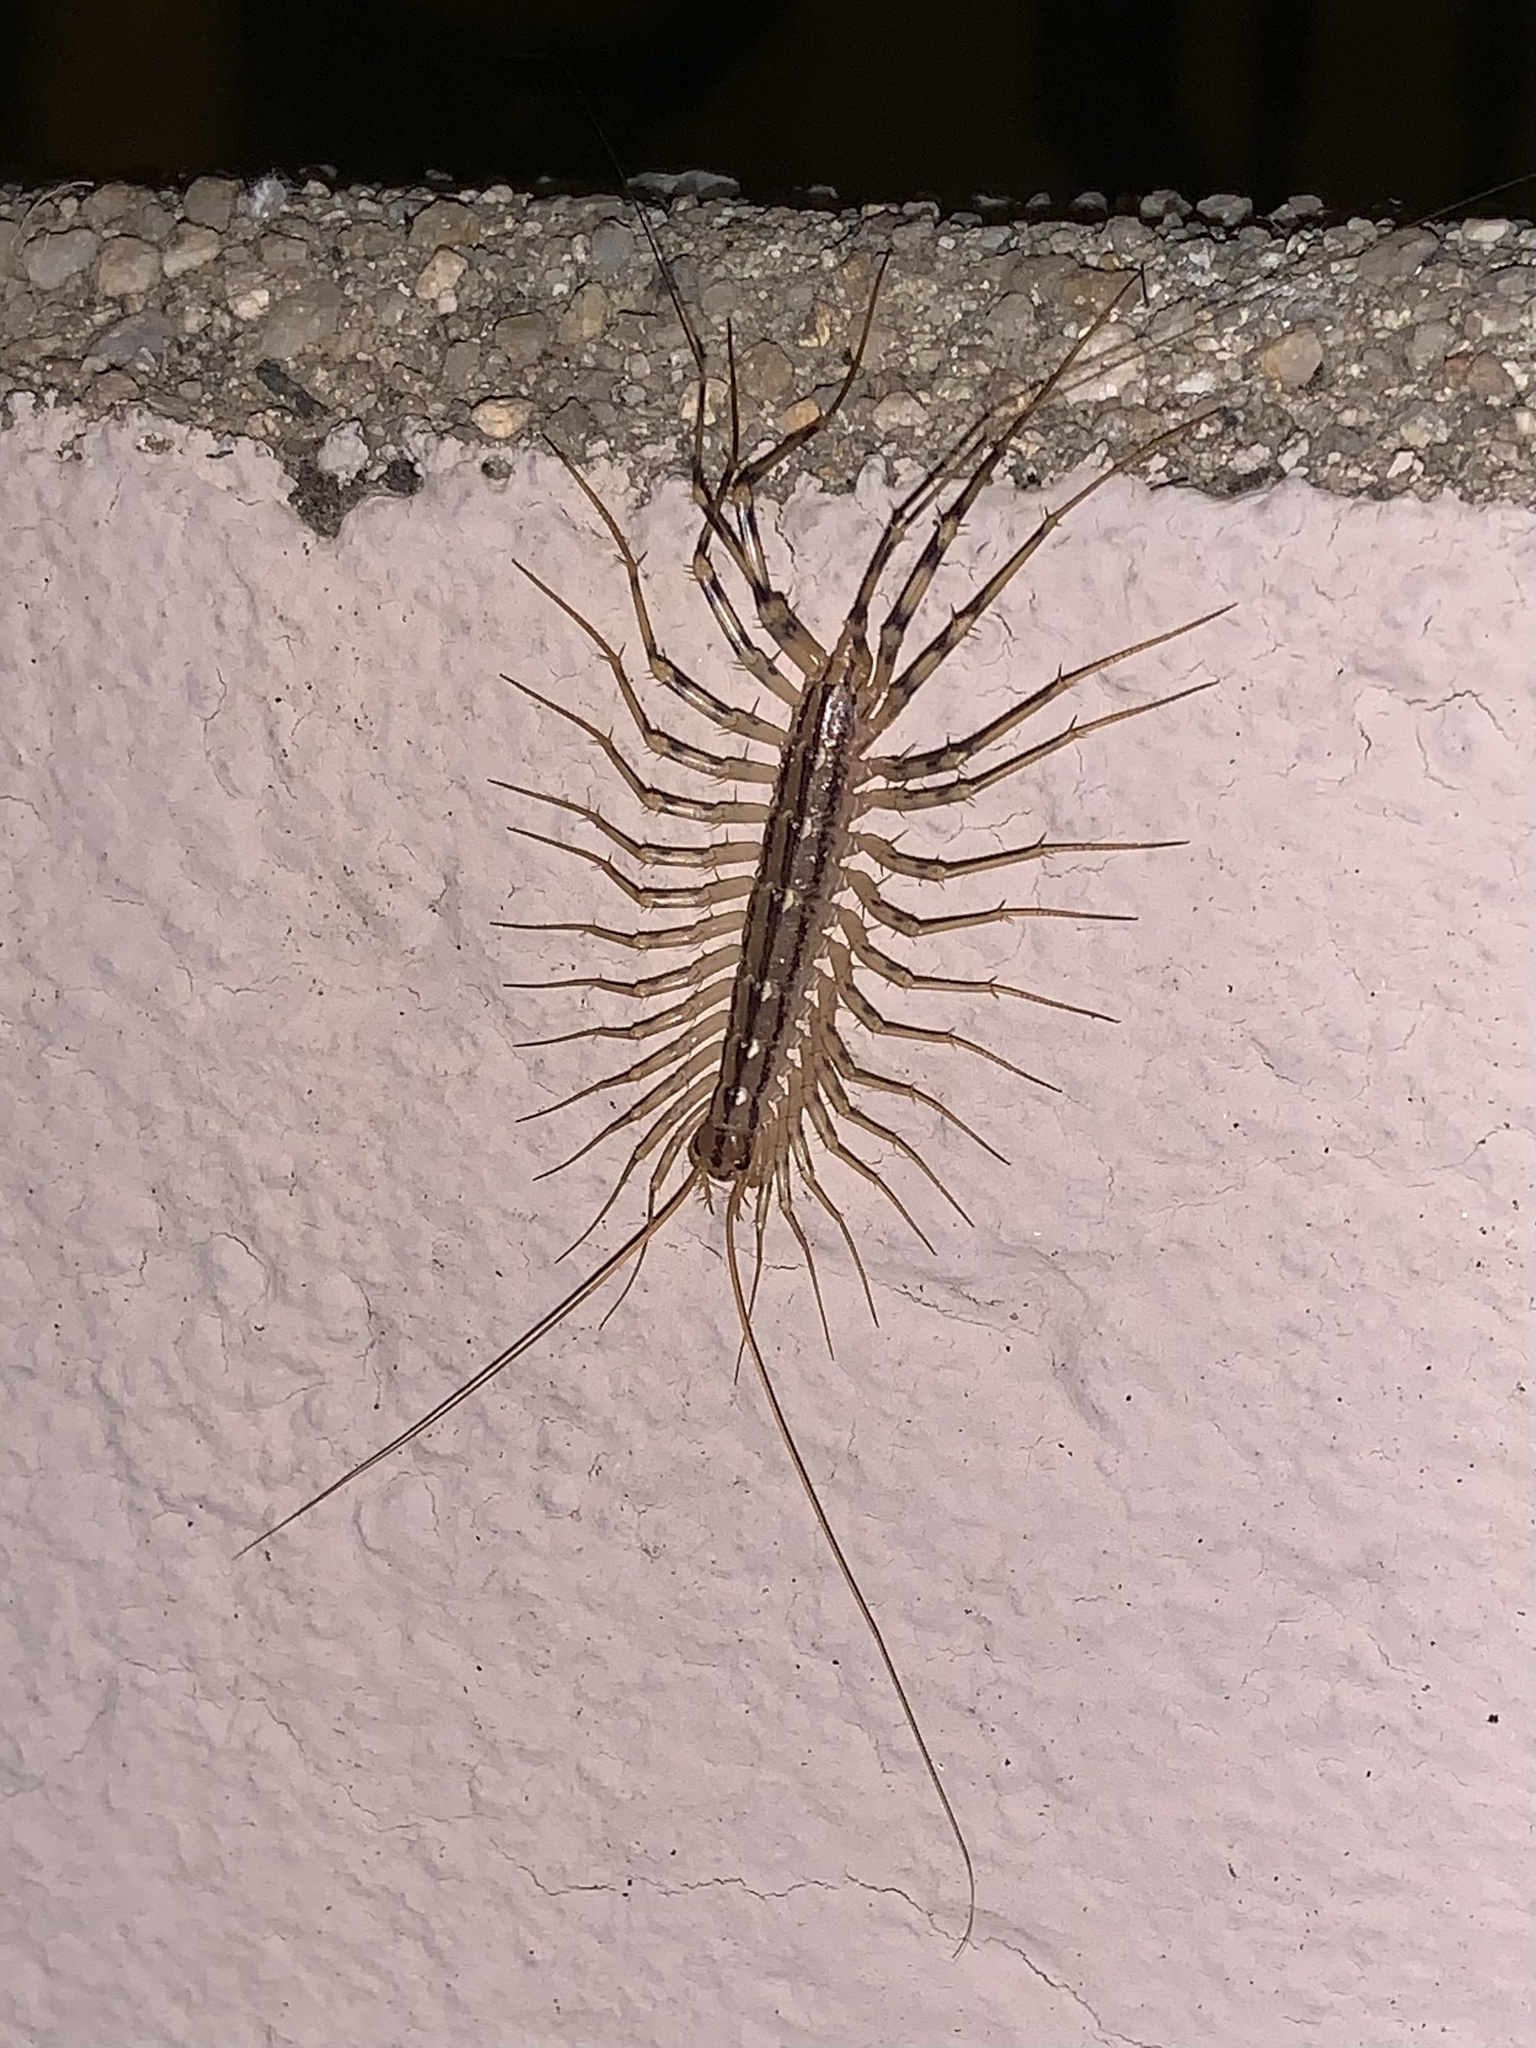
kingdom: Animalia
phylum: Arthropoda
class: Chilopoda
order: Scutigeromorpha
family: Scutigeridae
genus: Scutigera
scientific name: Scutigera coleoptrata
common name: House centipede
